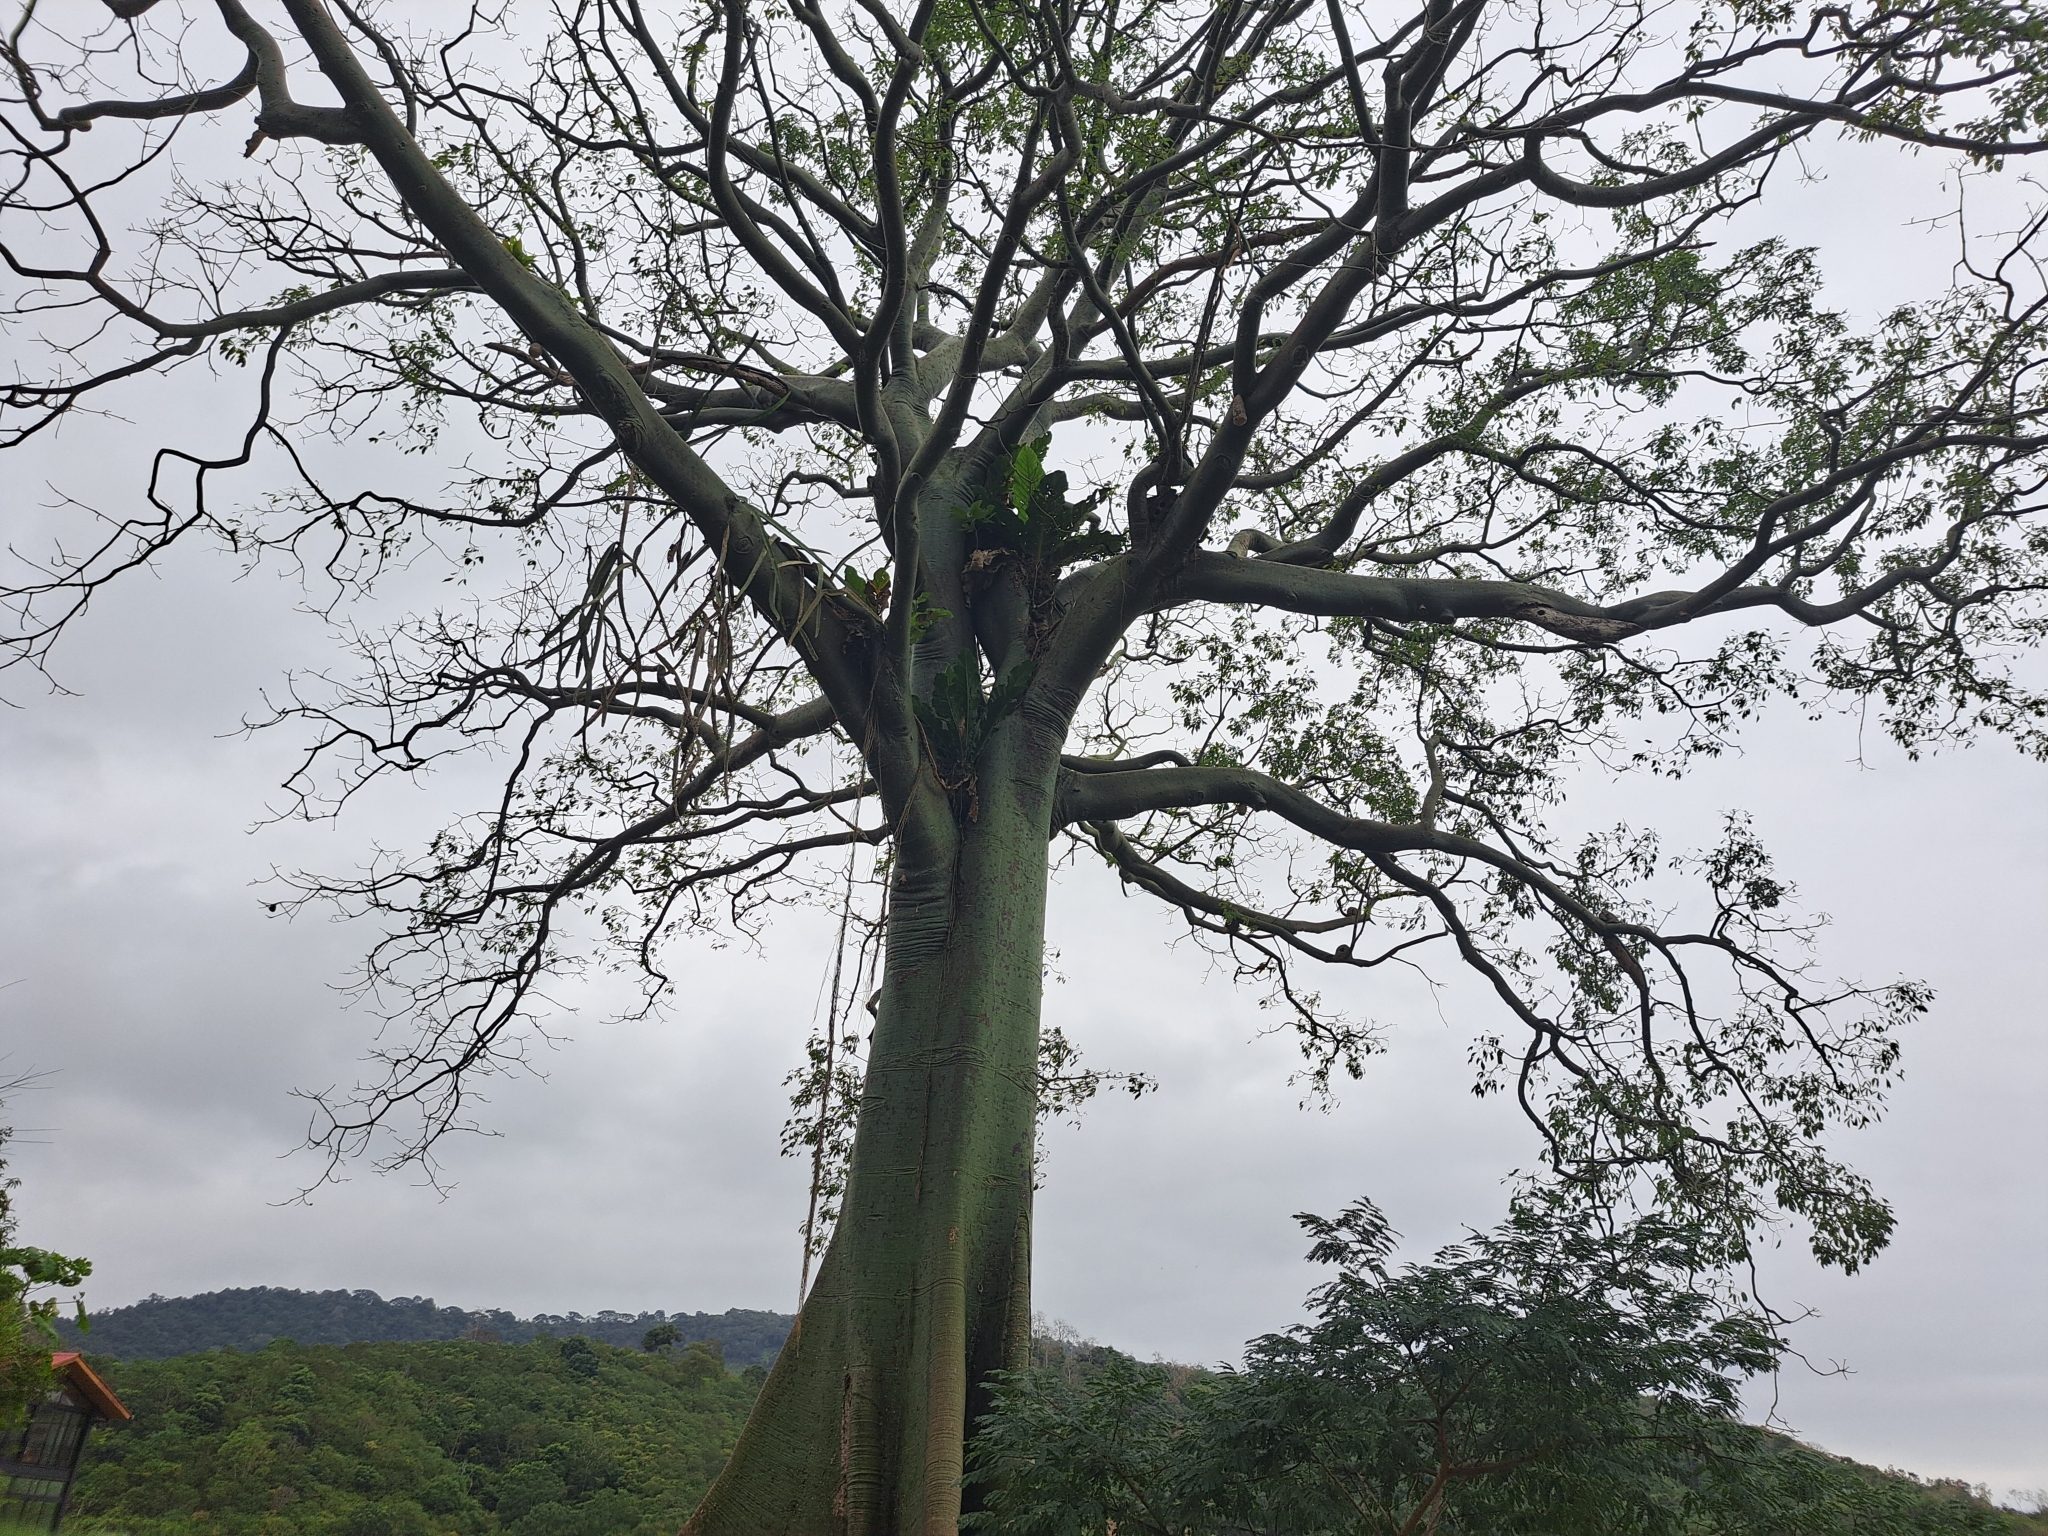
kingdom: Plantae
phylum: Tracheophyta
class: Magnoliopsida
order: Malvales
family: Malvaceae
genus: Ceiba
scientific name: Ceiba trischistandra
